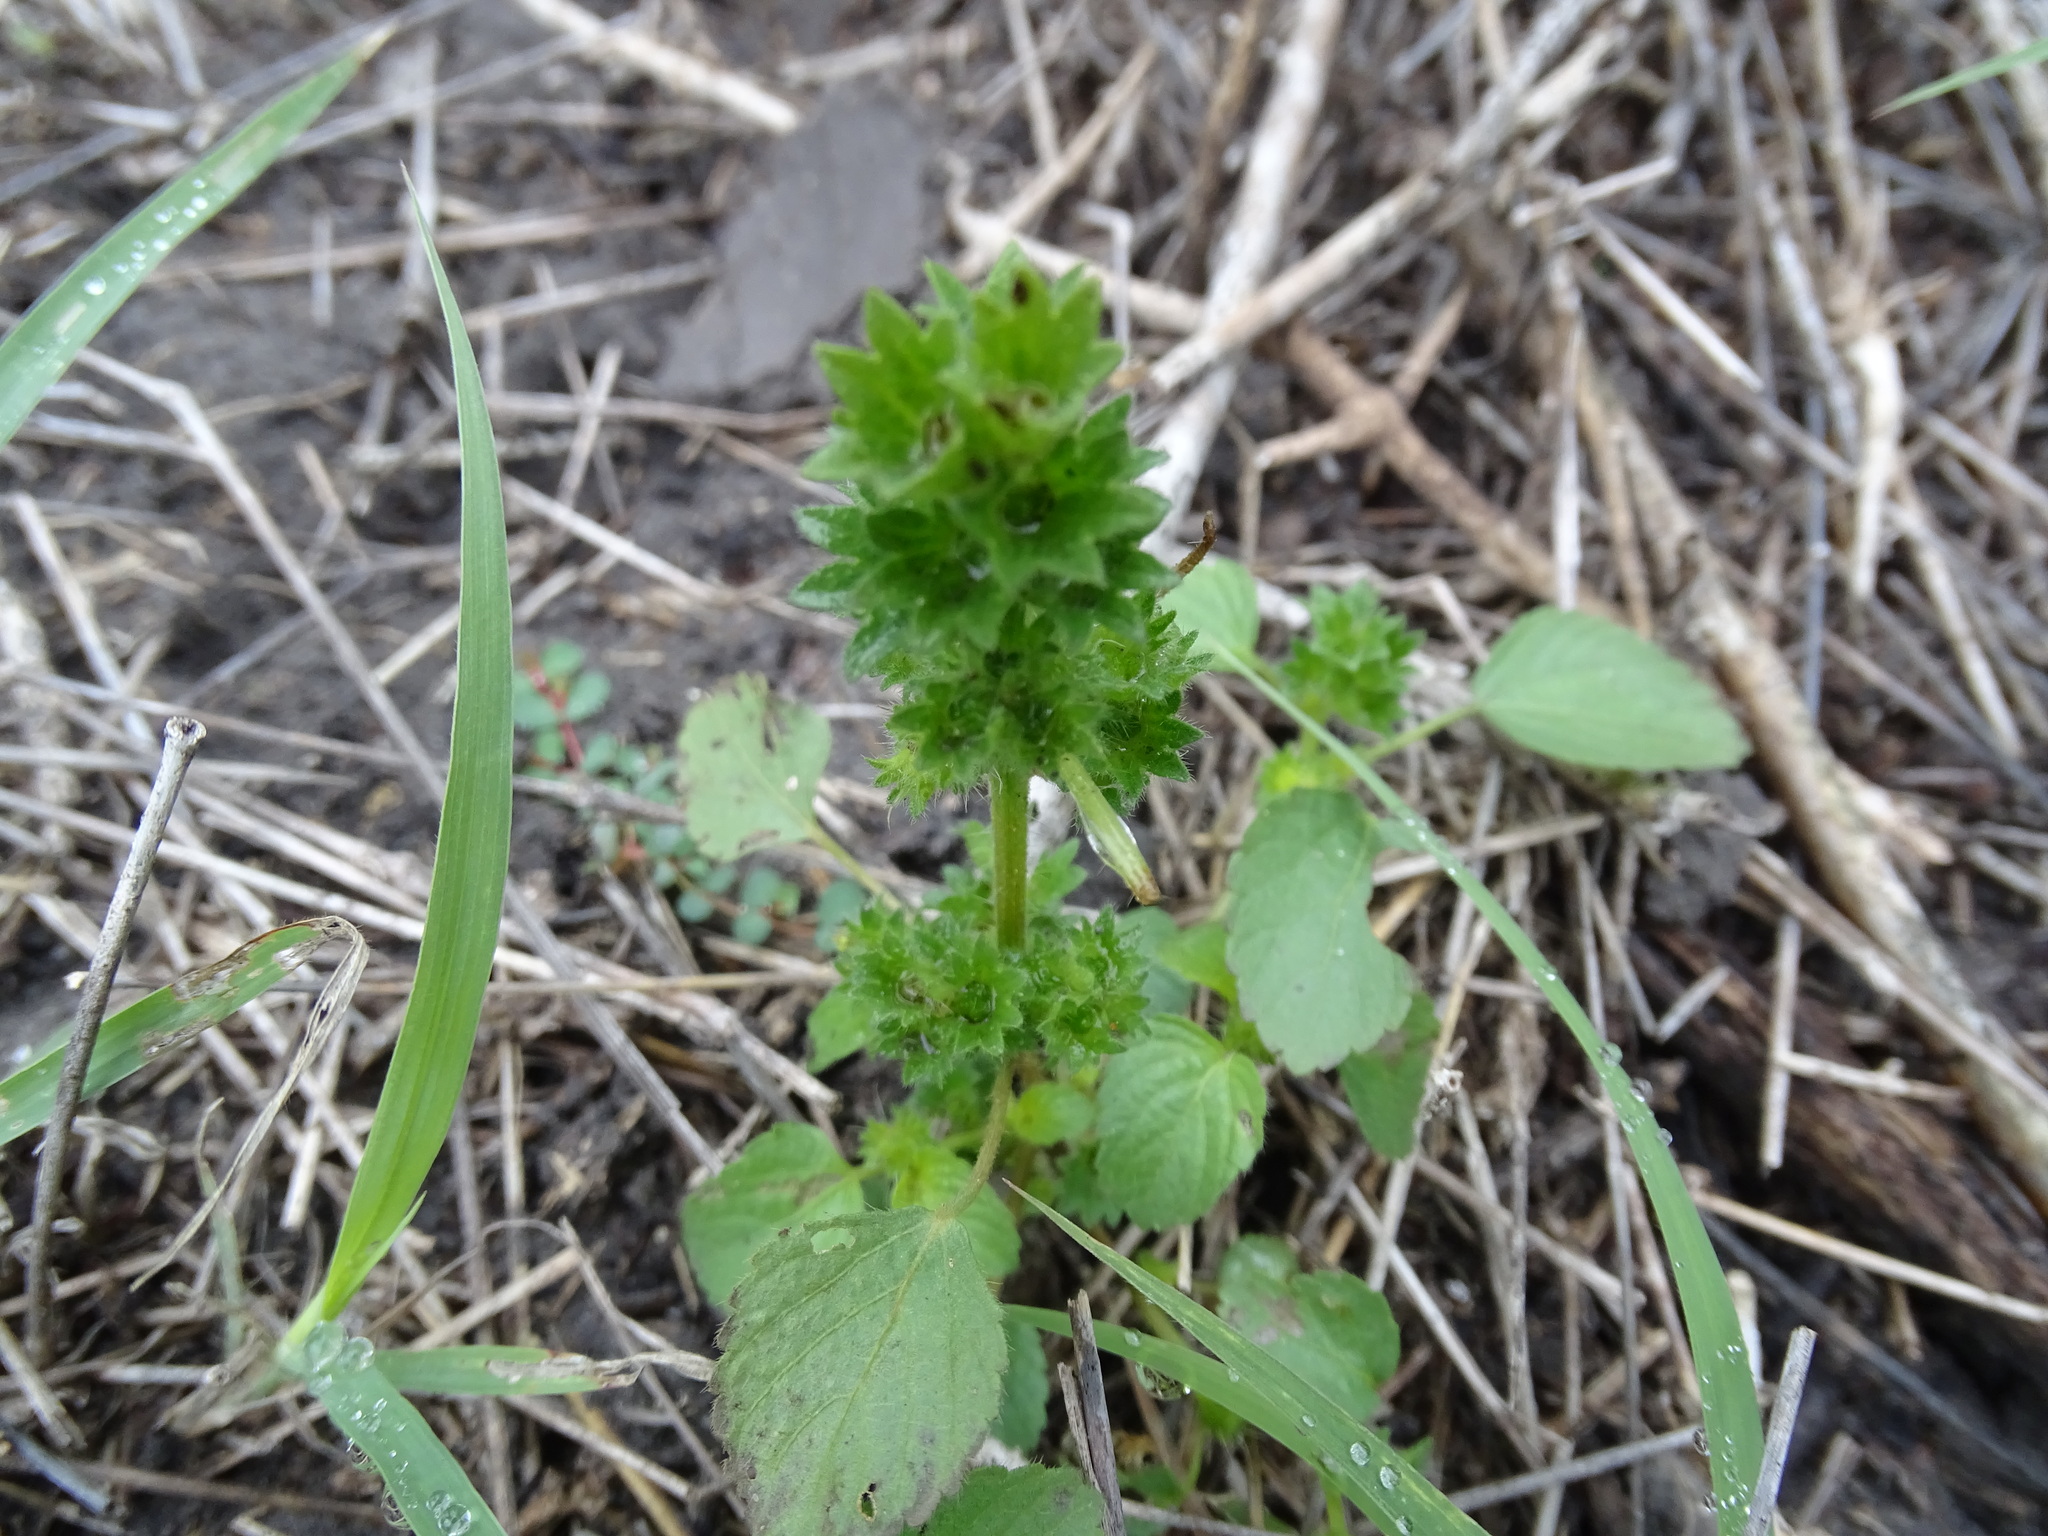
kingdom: Plantae
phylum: Tracheophyta
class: Magnoliopsida
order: Malpighiales
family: Euphorbiaceae
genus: Acalypha
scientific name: Acalypha poiretii
